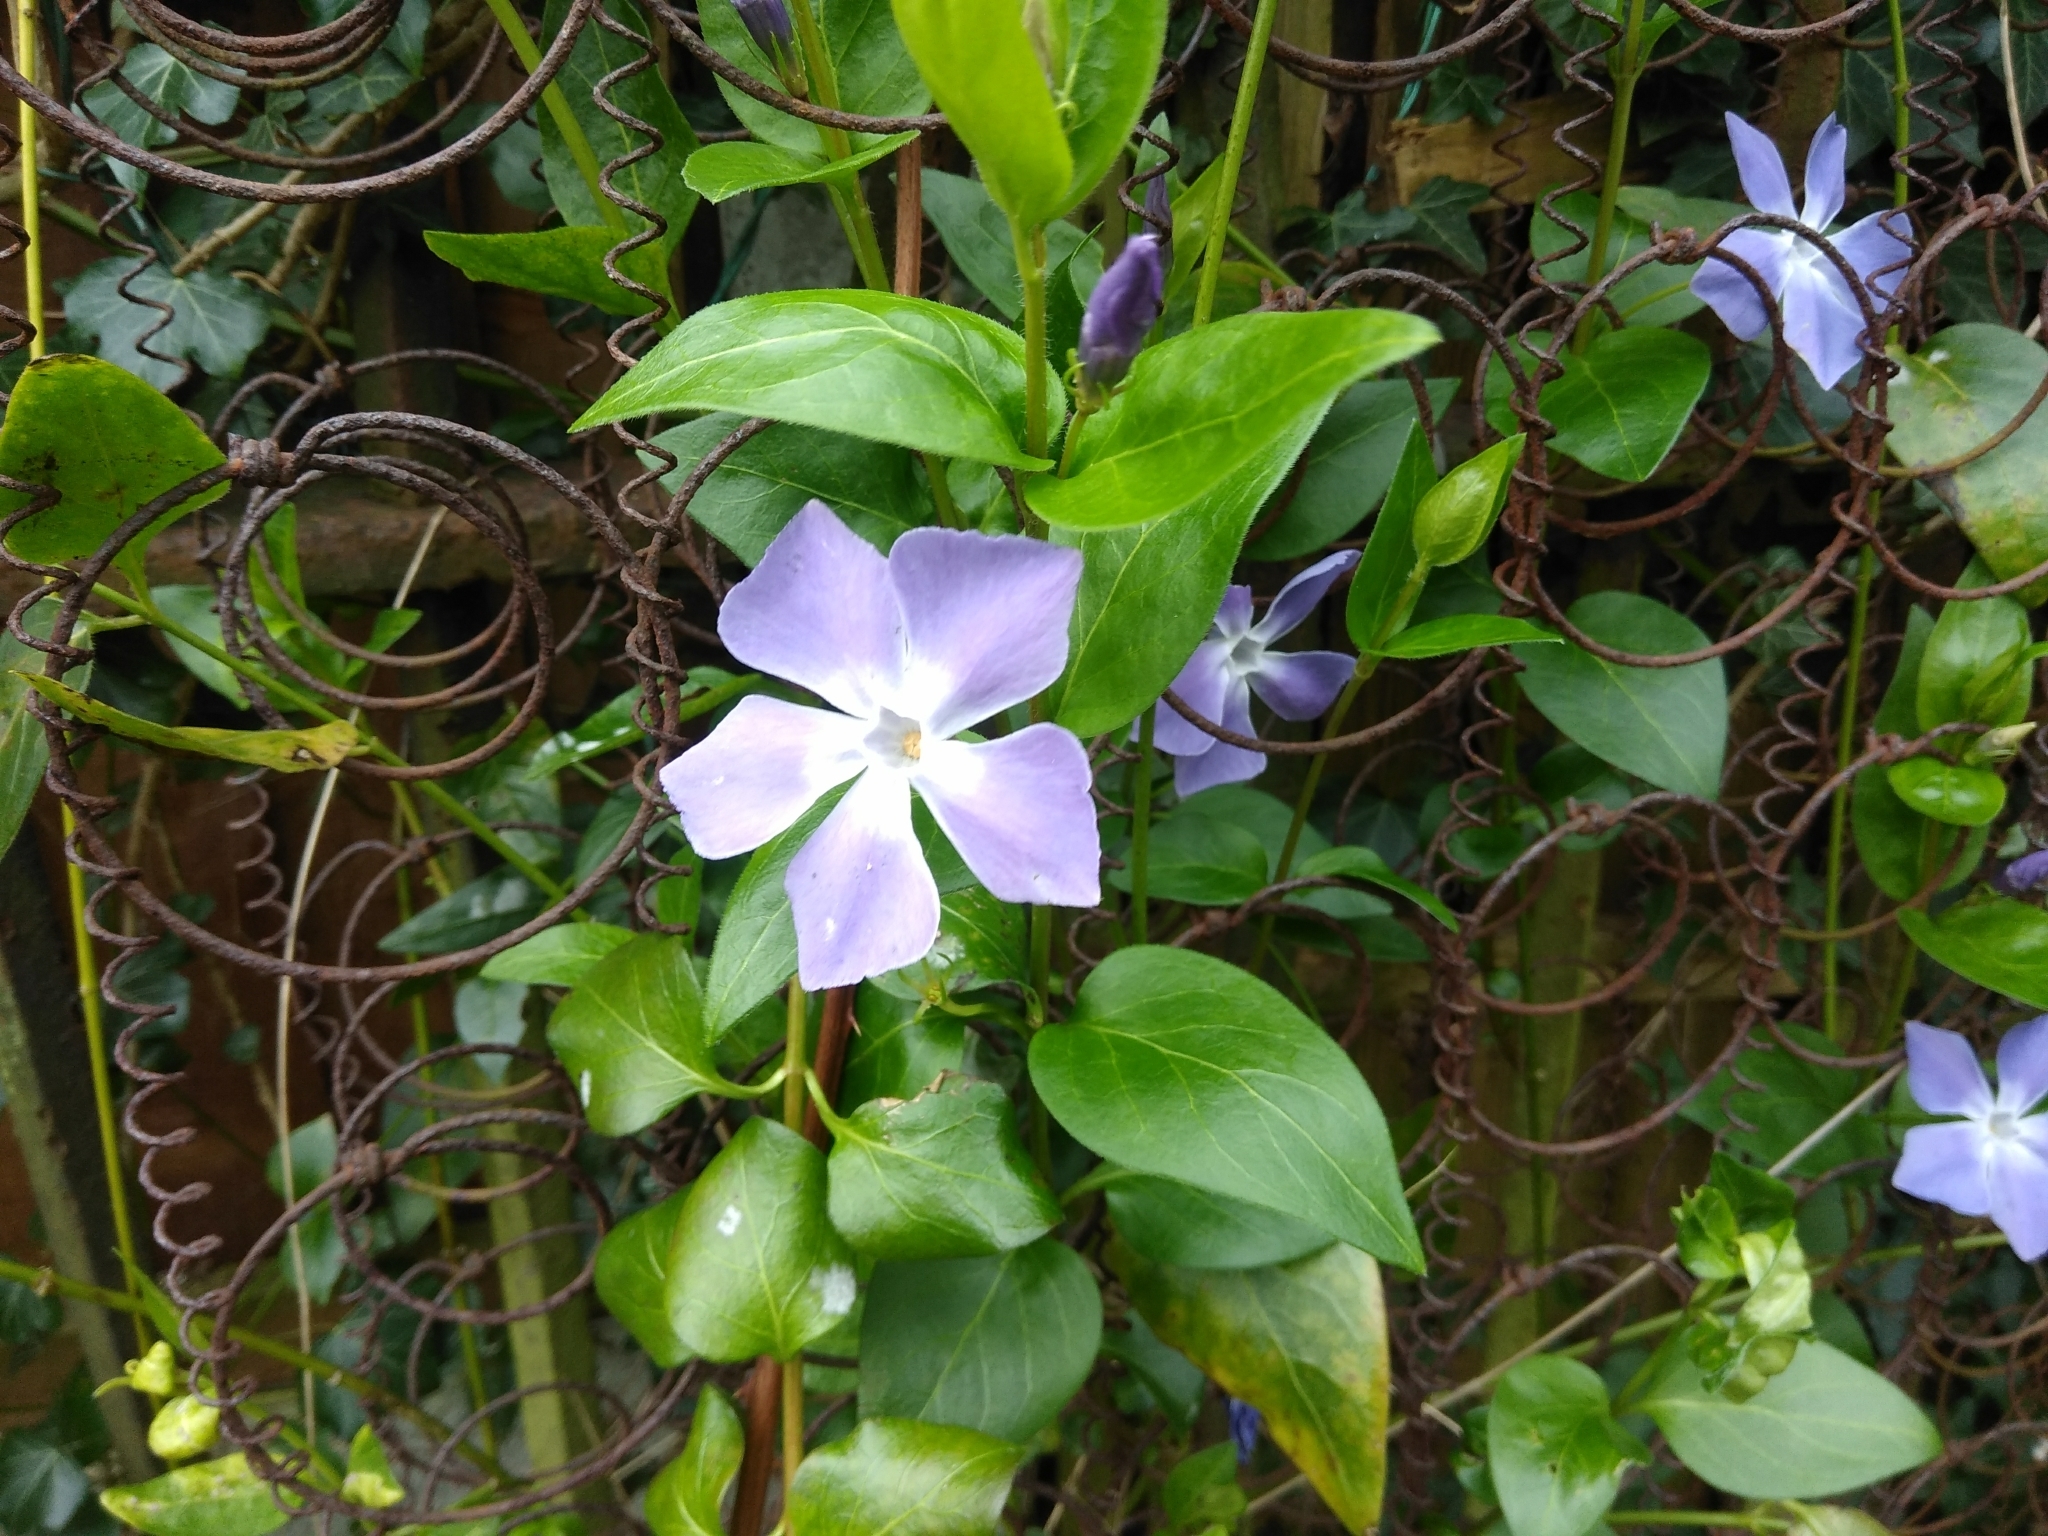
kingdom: Plantae
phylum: Tracheophyta
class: Magnoliopsida
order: Gentianales
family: Apocynaceae
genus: Vinca
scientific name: Vinca major
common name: Greater periwinkle
